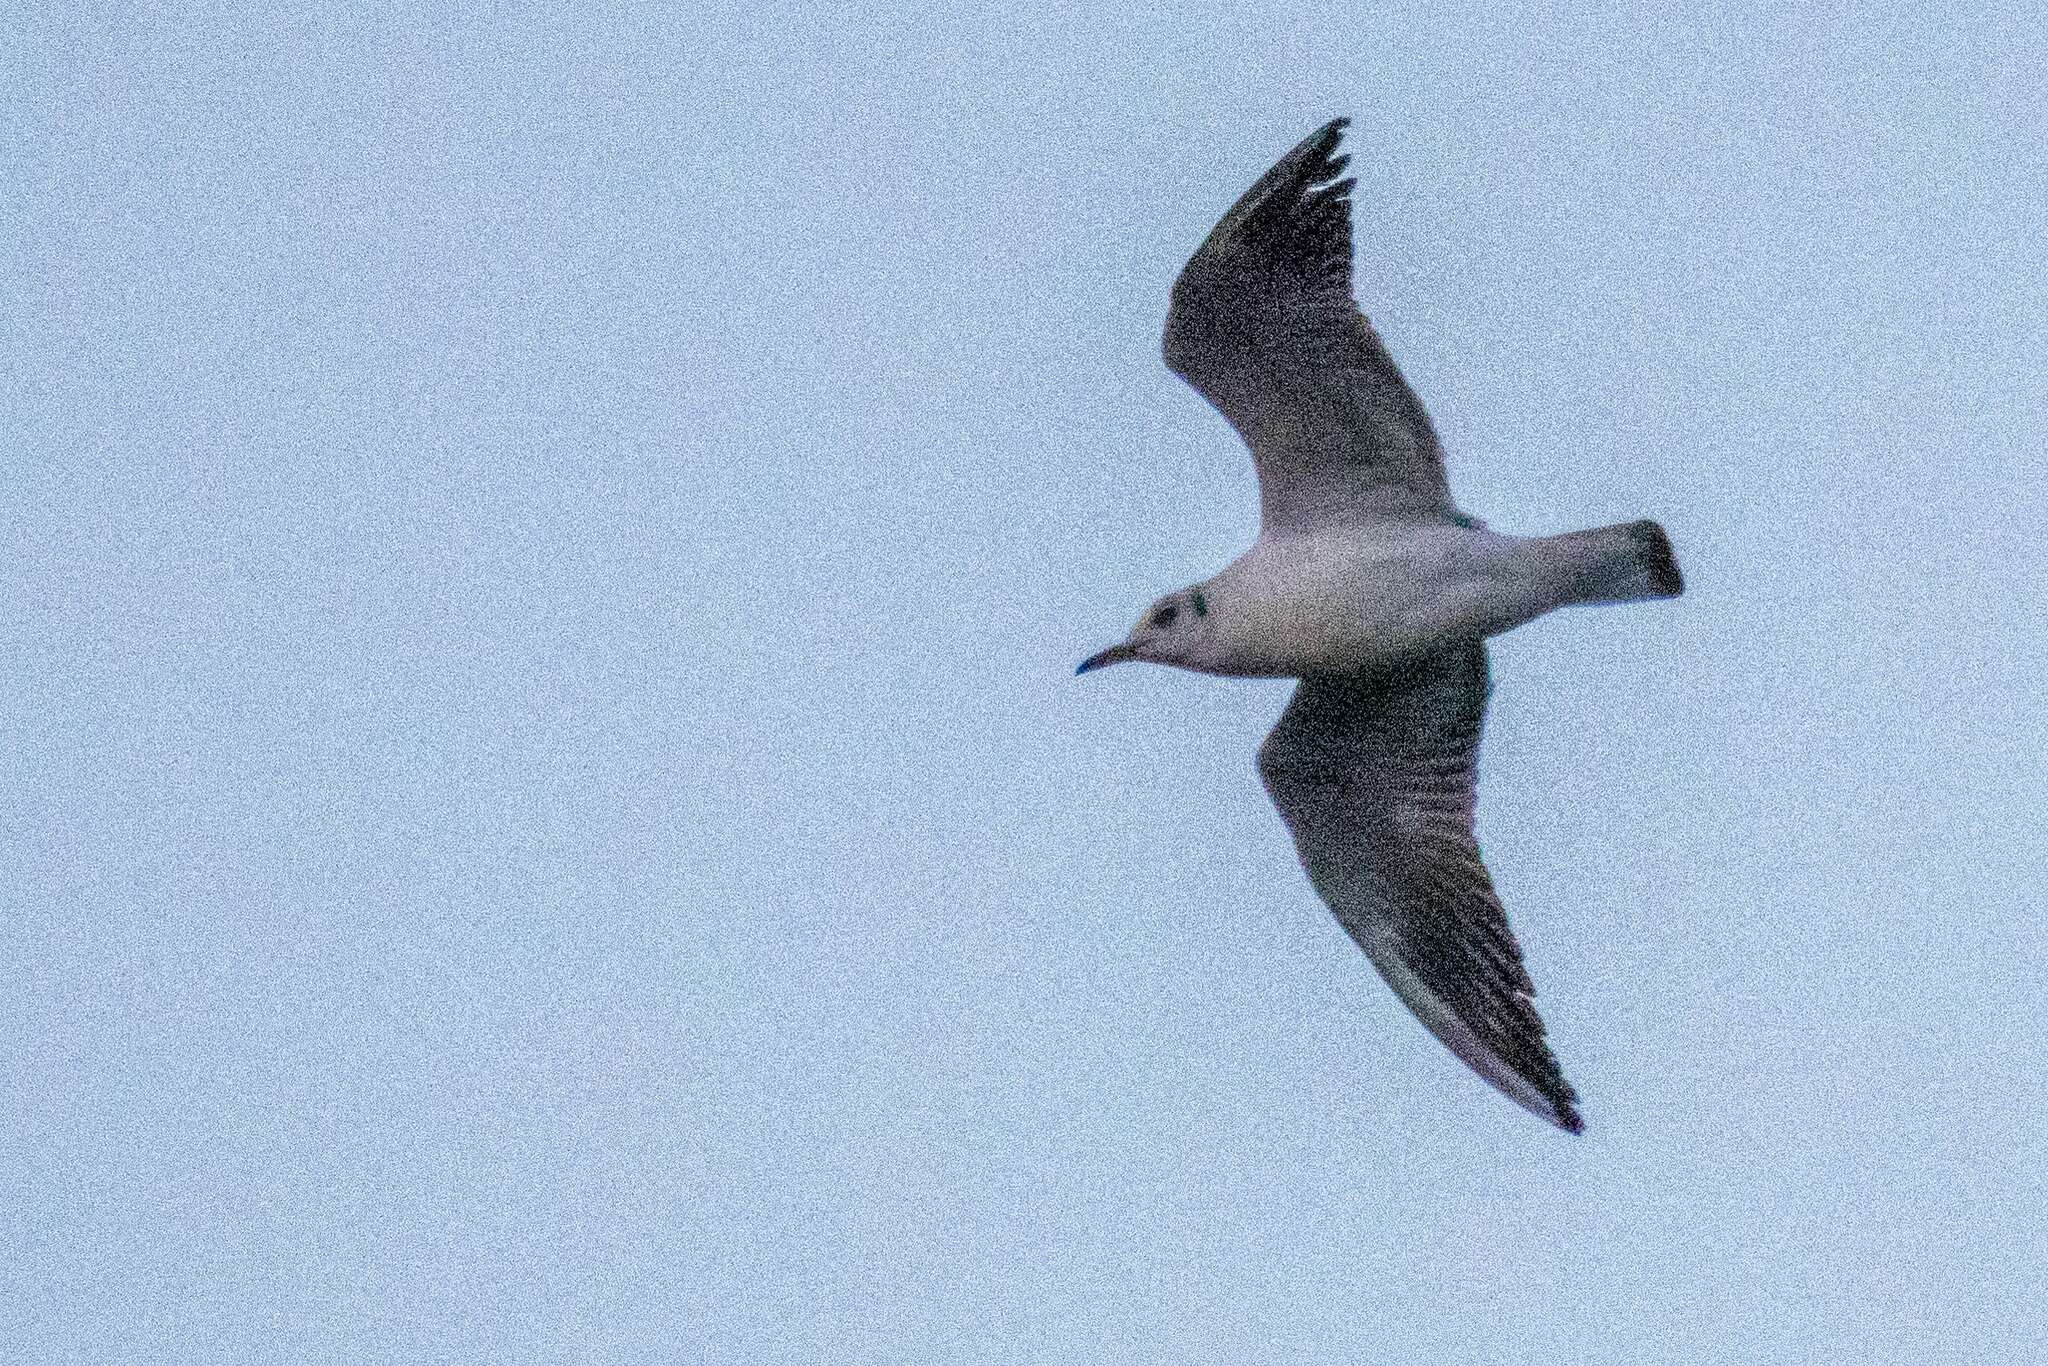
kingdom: Animalia
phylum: Chordata
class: Aves
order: Charadriiformes
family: Laridae
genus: Chroicocephalus
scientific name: Chroicocephalus ridibundus
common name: Black-headed gull
